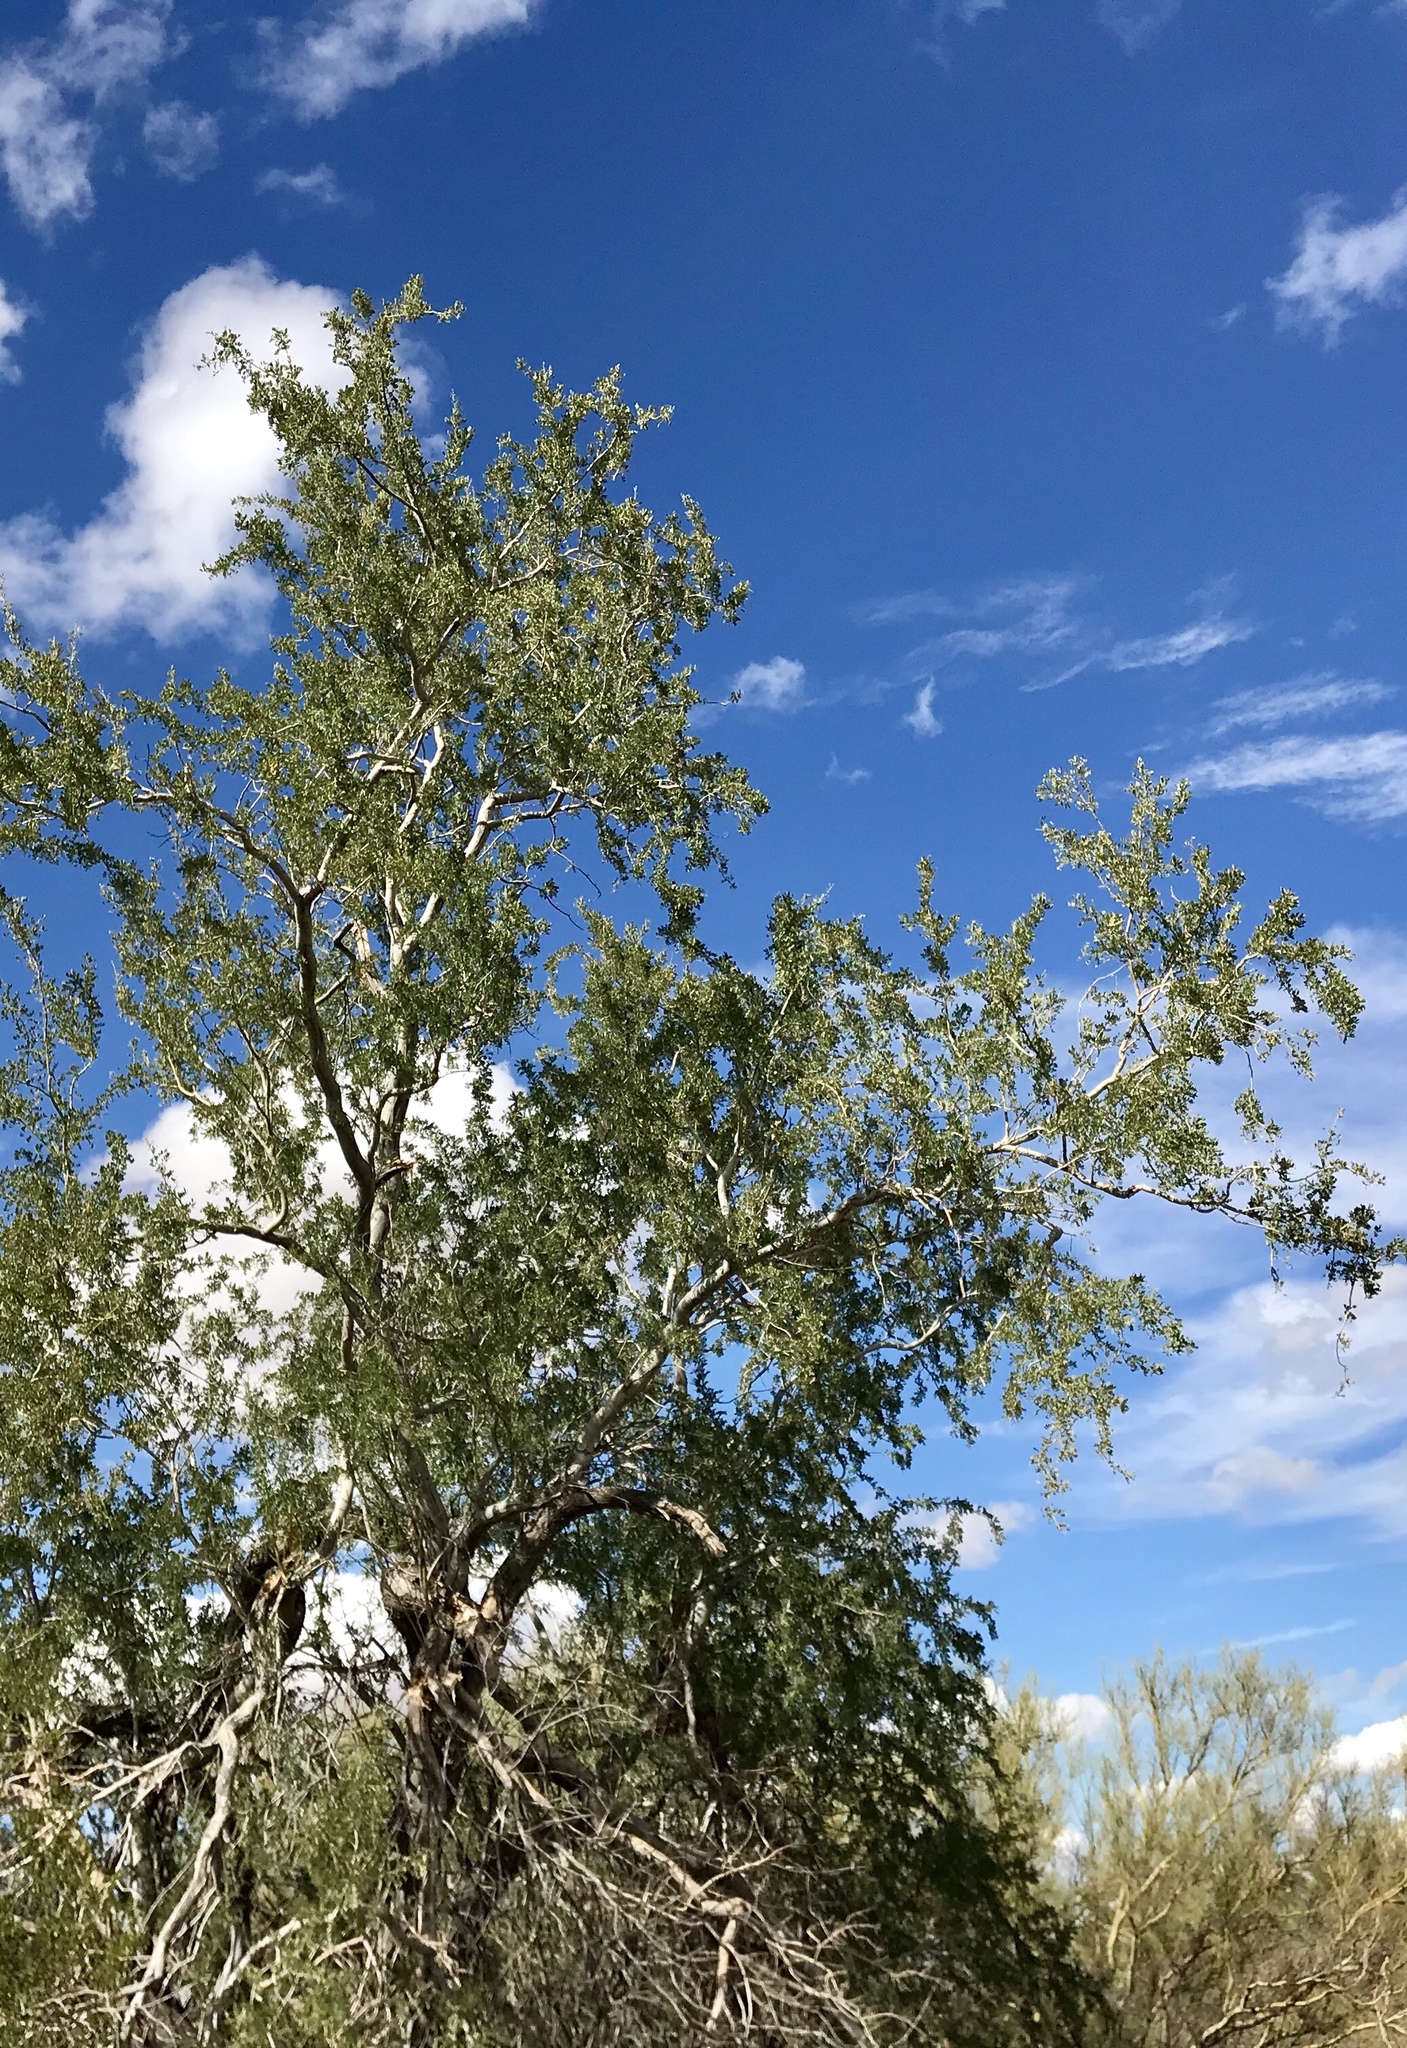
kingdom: Plantae
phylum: Tracheophyta
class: Magnoliopsida
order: Fabales
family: Fabaceae
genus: Olneya
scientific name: Olneya tesota
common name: Desert ironwood
